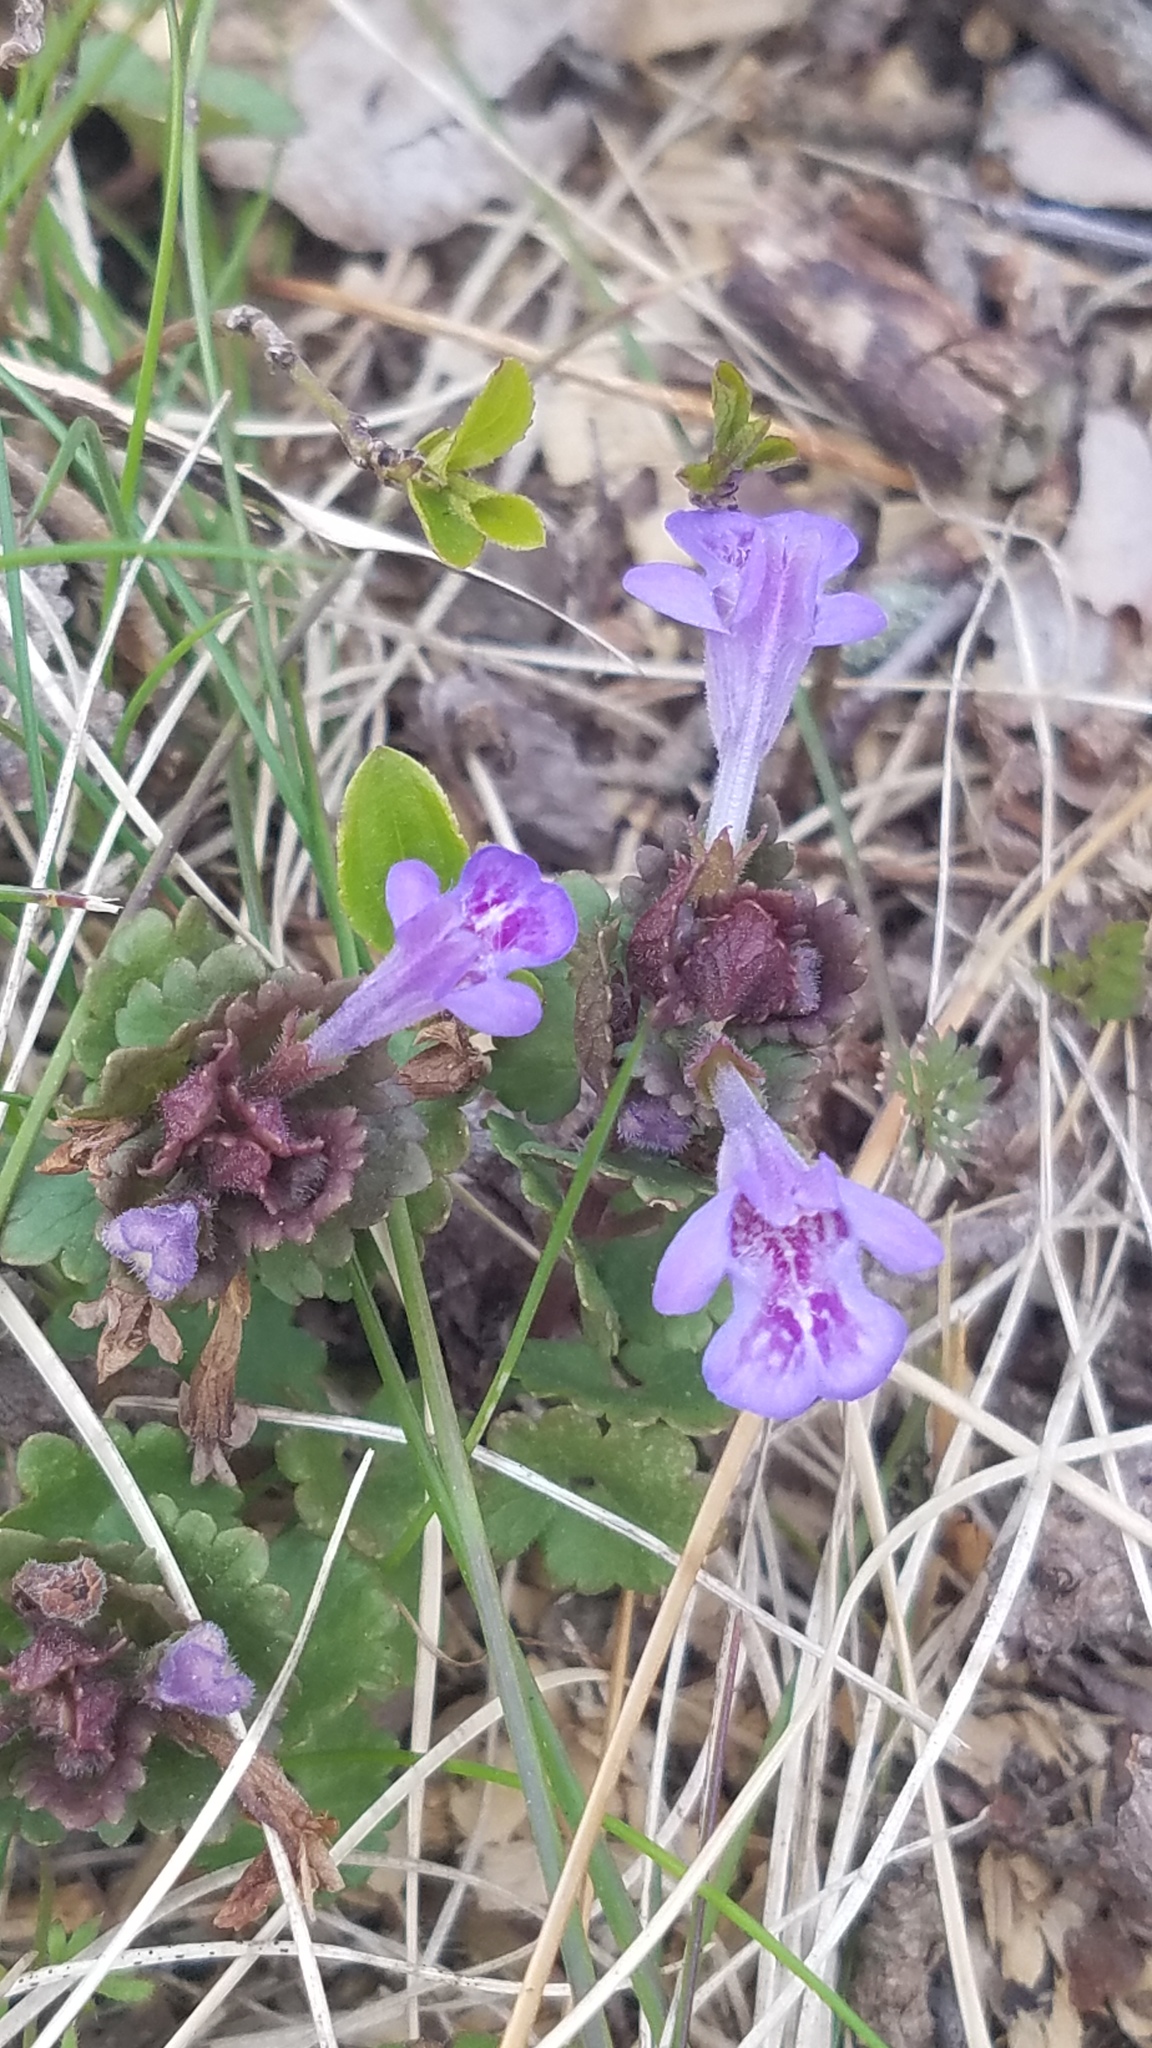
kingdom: Plantae
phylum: Tracheophyta
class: Magnoliopsida
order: Lamiales
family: Lamiaceae
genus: Glechoma
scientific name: Glechoma hederacea
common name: Ground ivy
